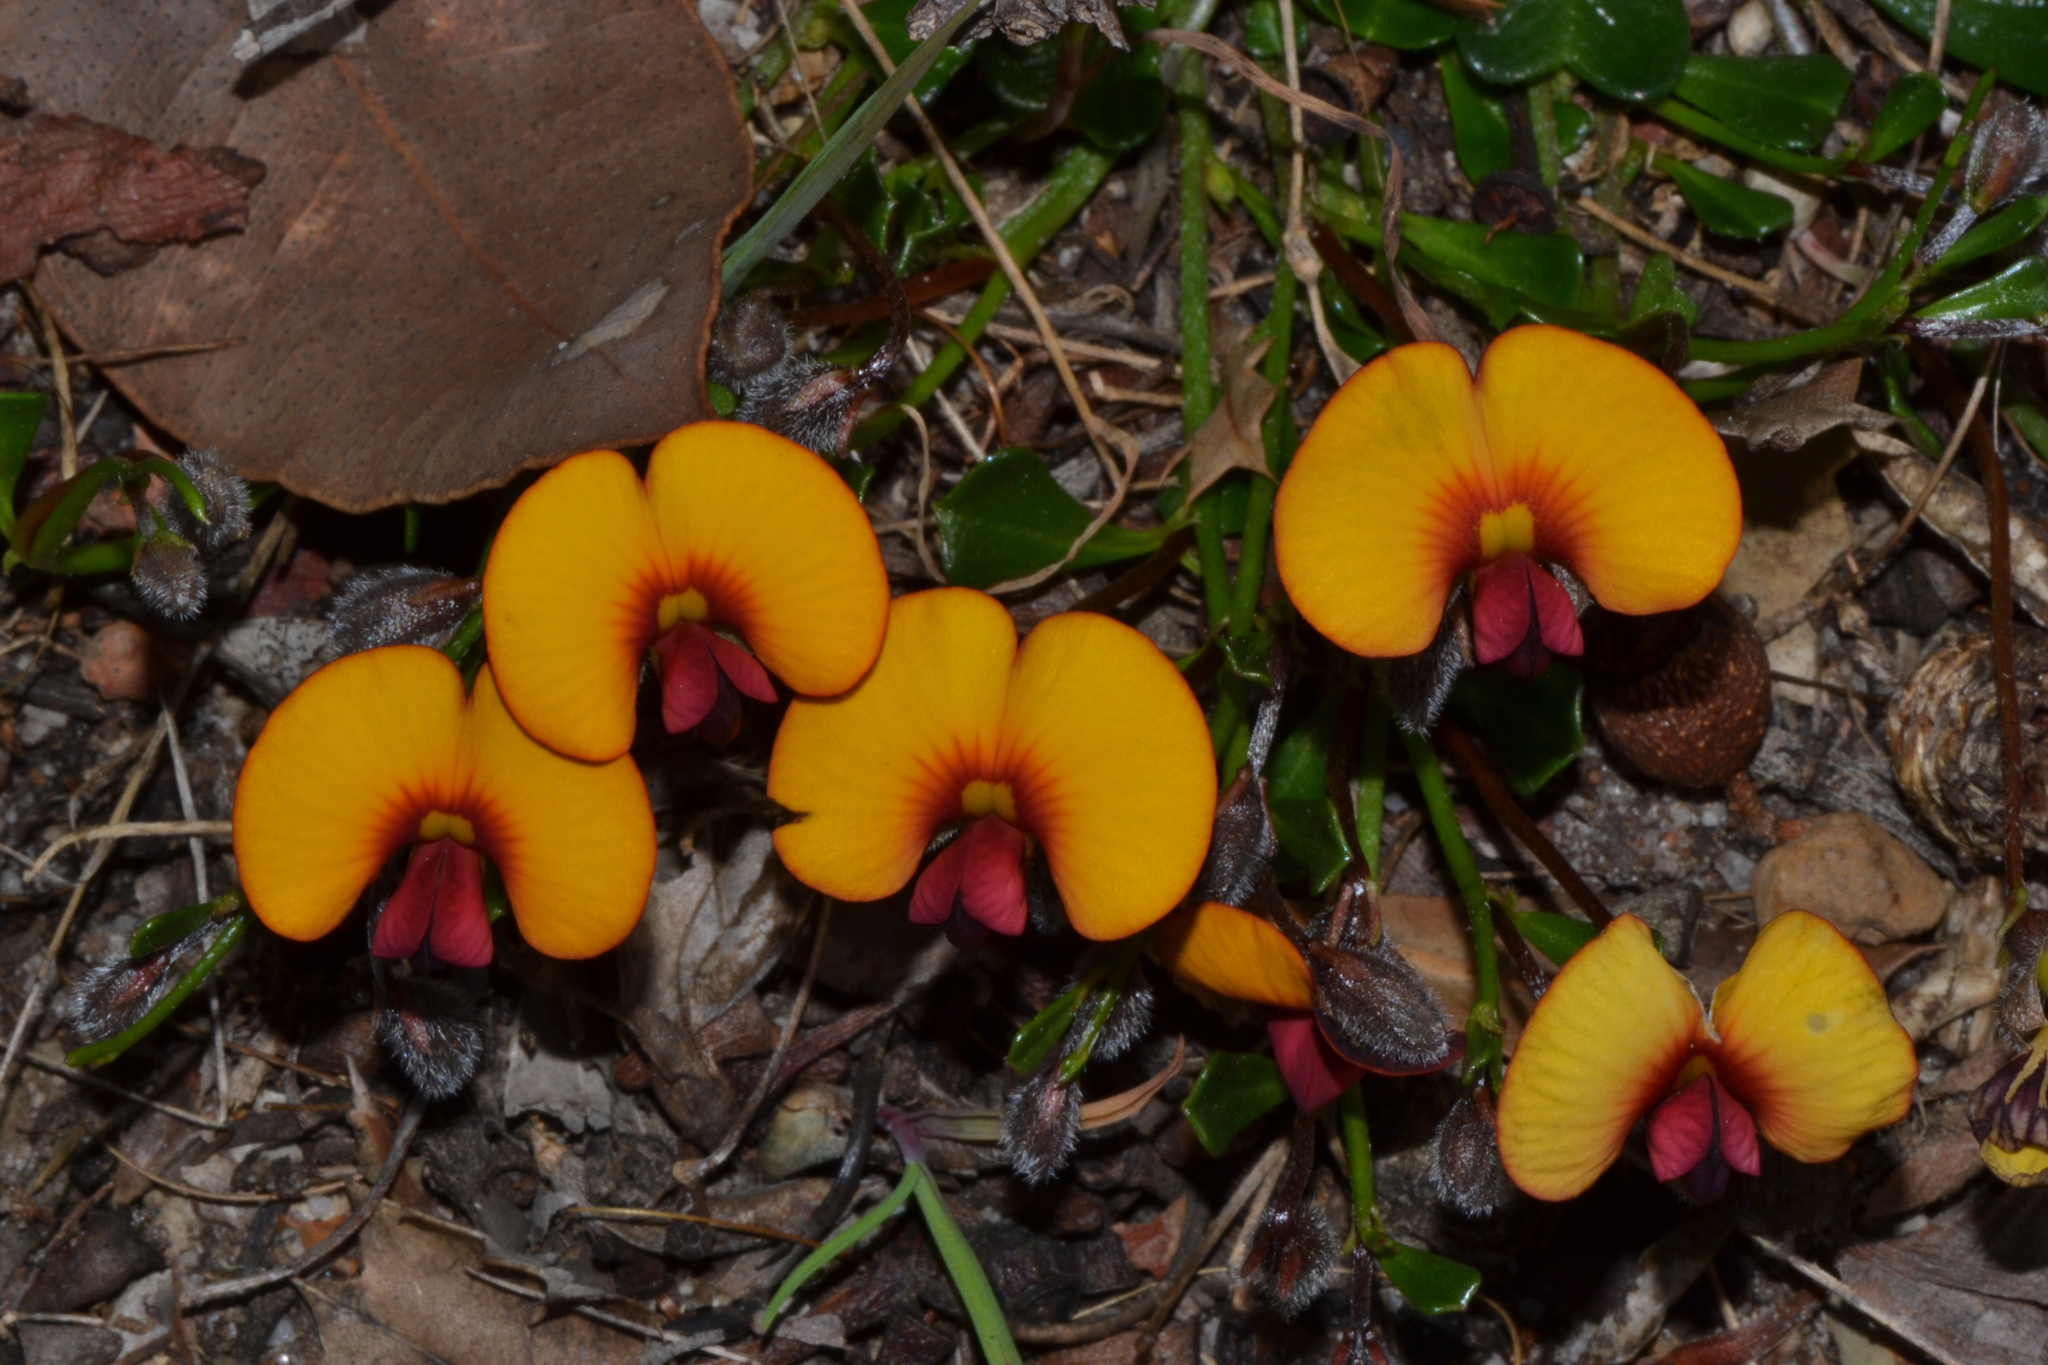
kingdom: Plantae
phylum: Tracheophyta
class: Magnoliopsida
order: Fabales
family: Fabaceae
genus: Isotropis
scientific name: Isotropis cuneifolia
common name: Granny bonnets
